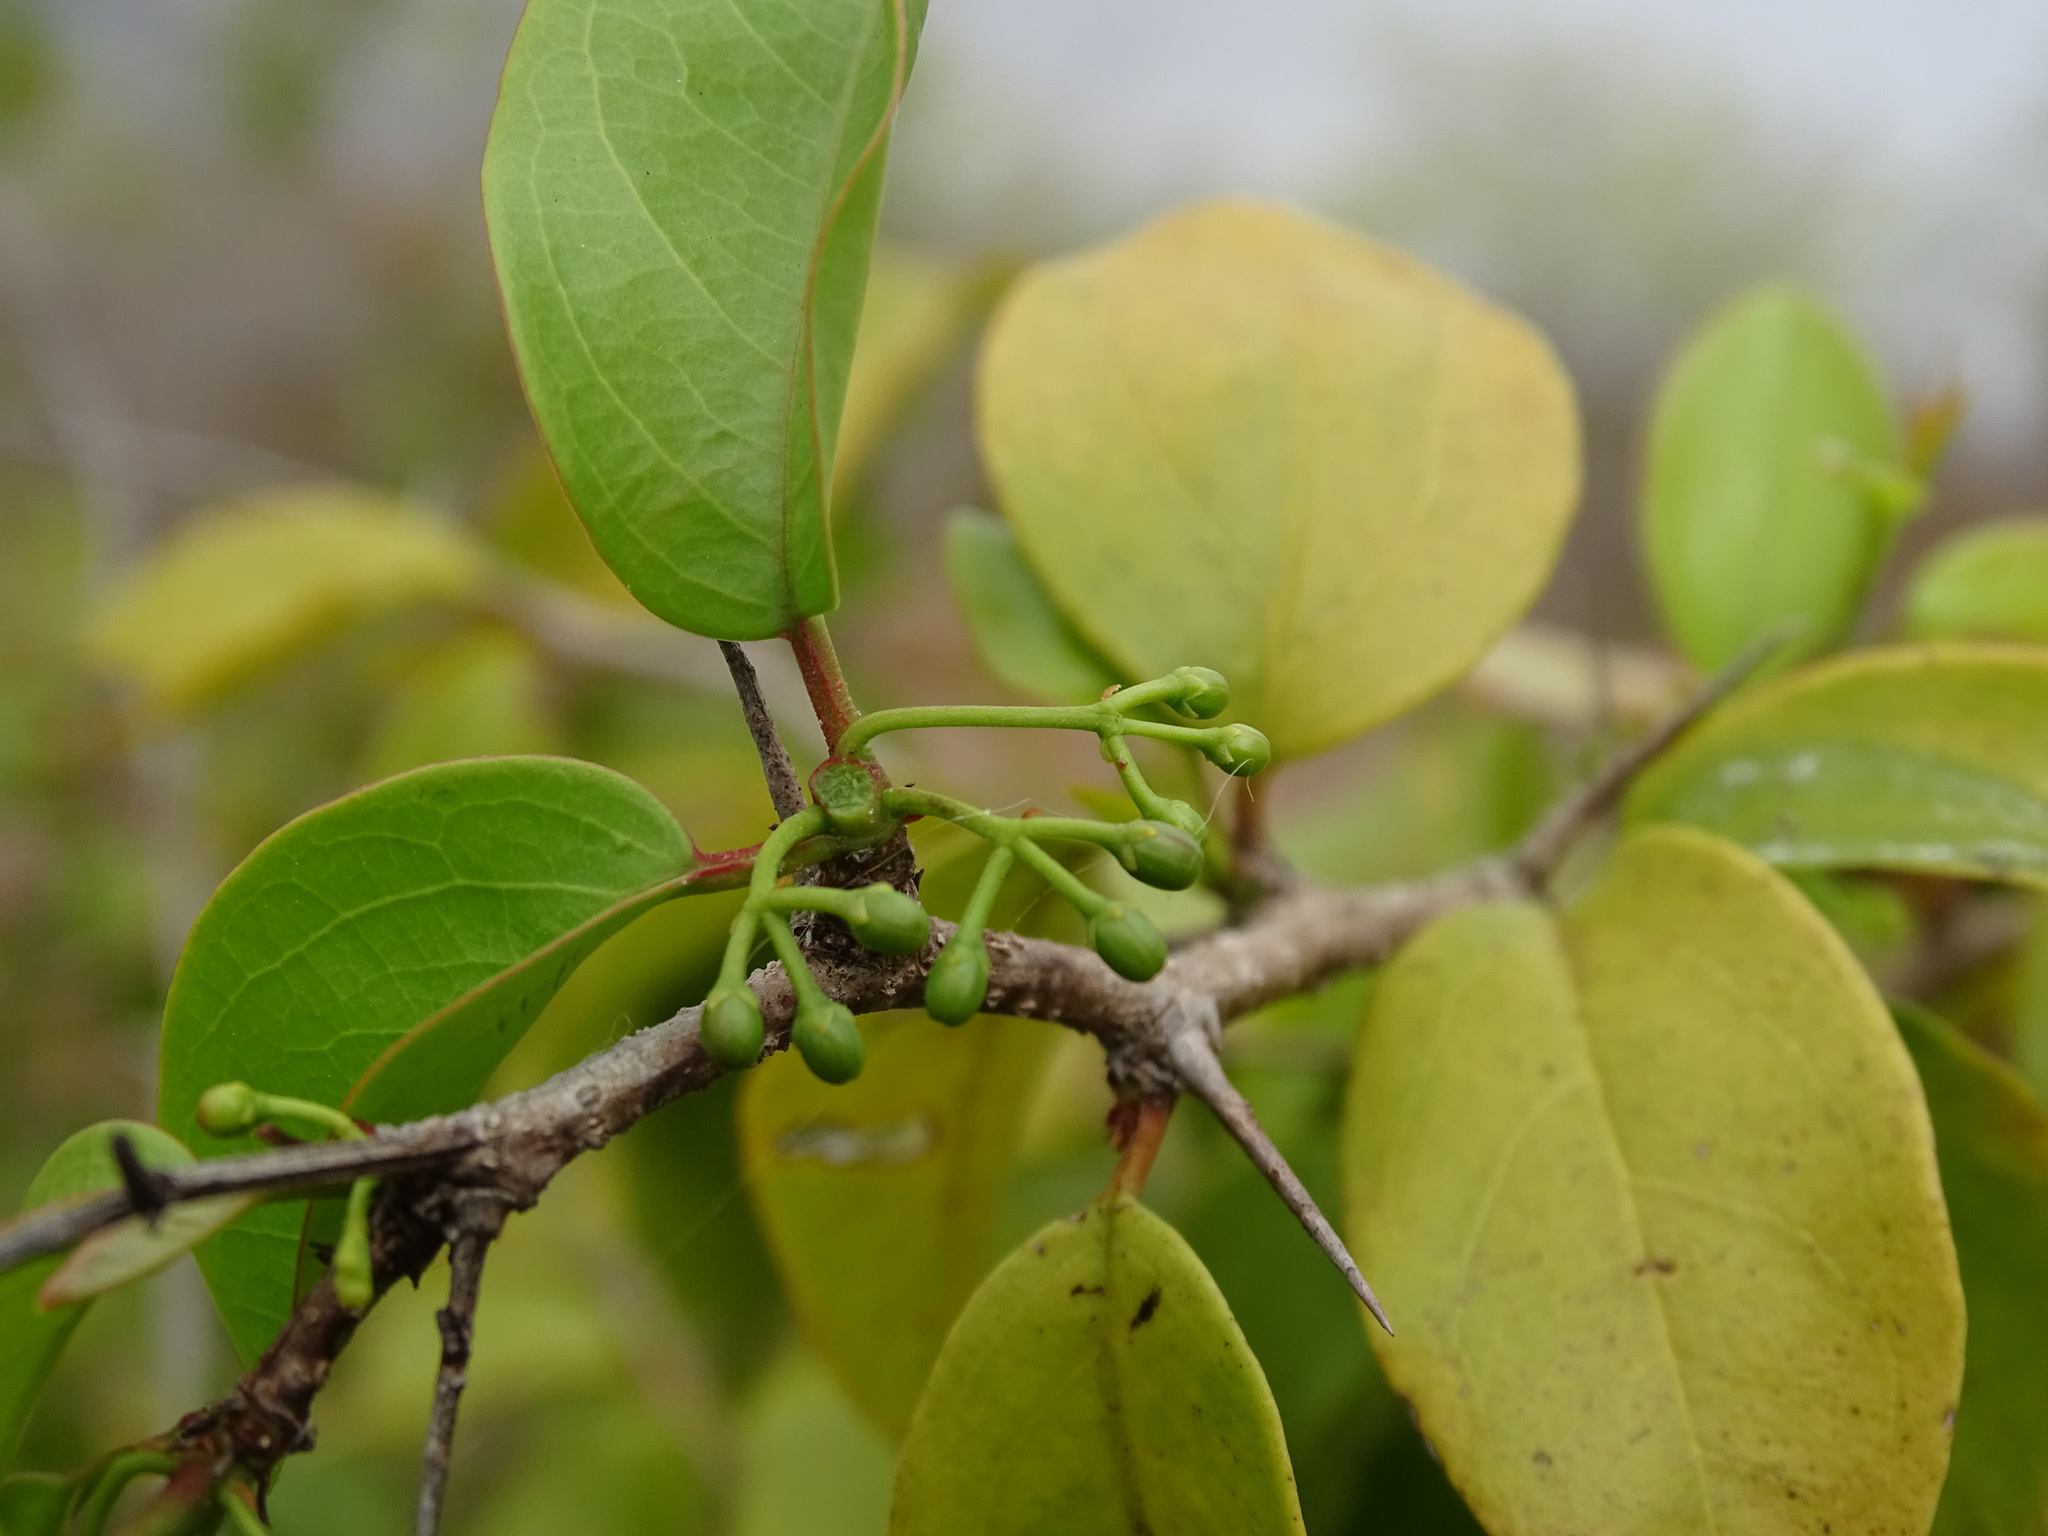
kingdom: Plantae
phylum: Tracheophyta
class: Magnoliopsida
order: Santalales
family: Ximeniaceae
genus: Ximenia
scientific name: Ximenia americana
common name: Tallowwood
